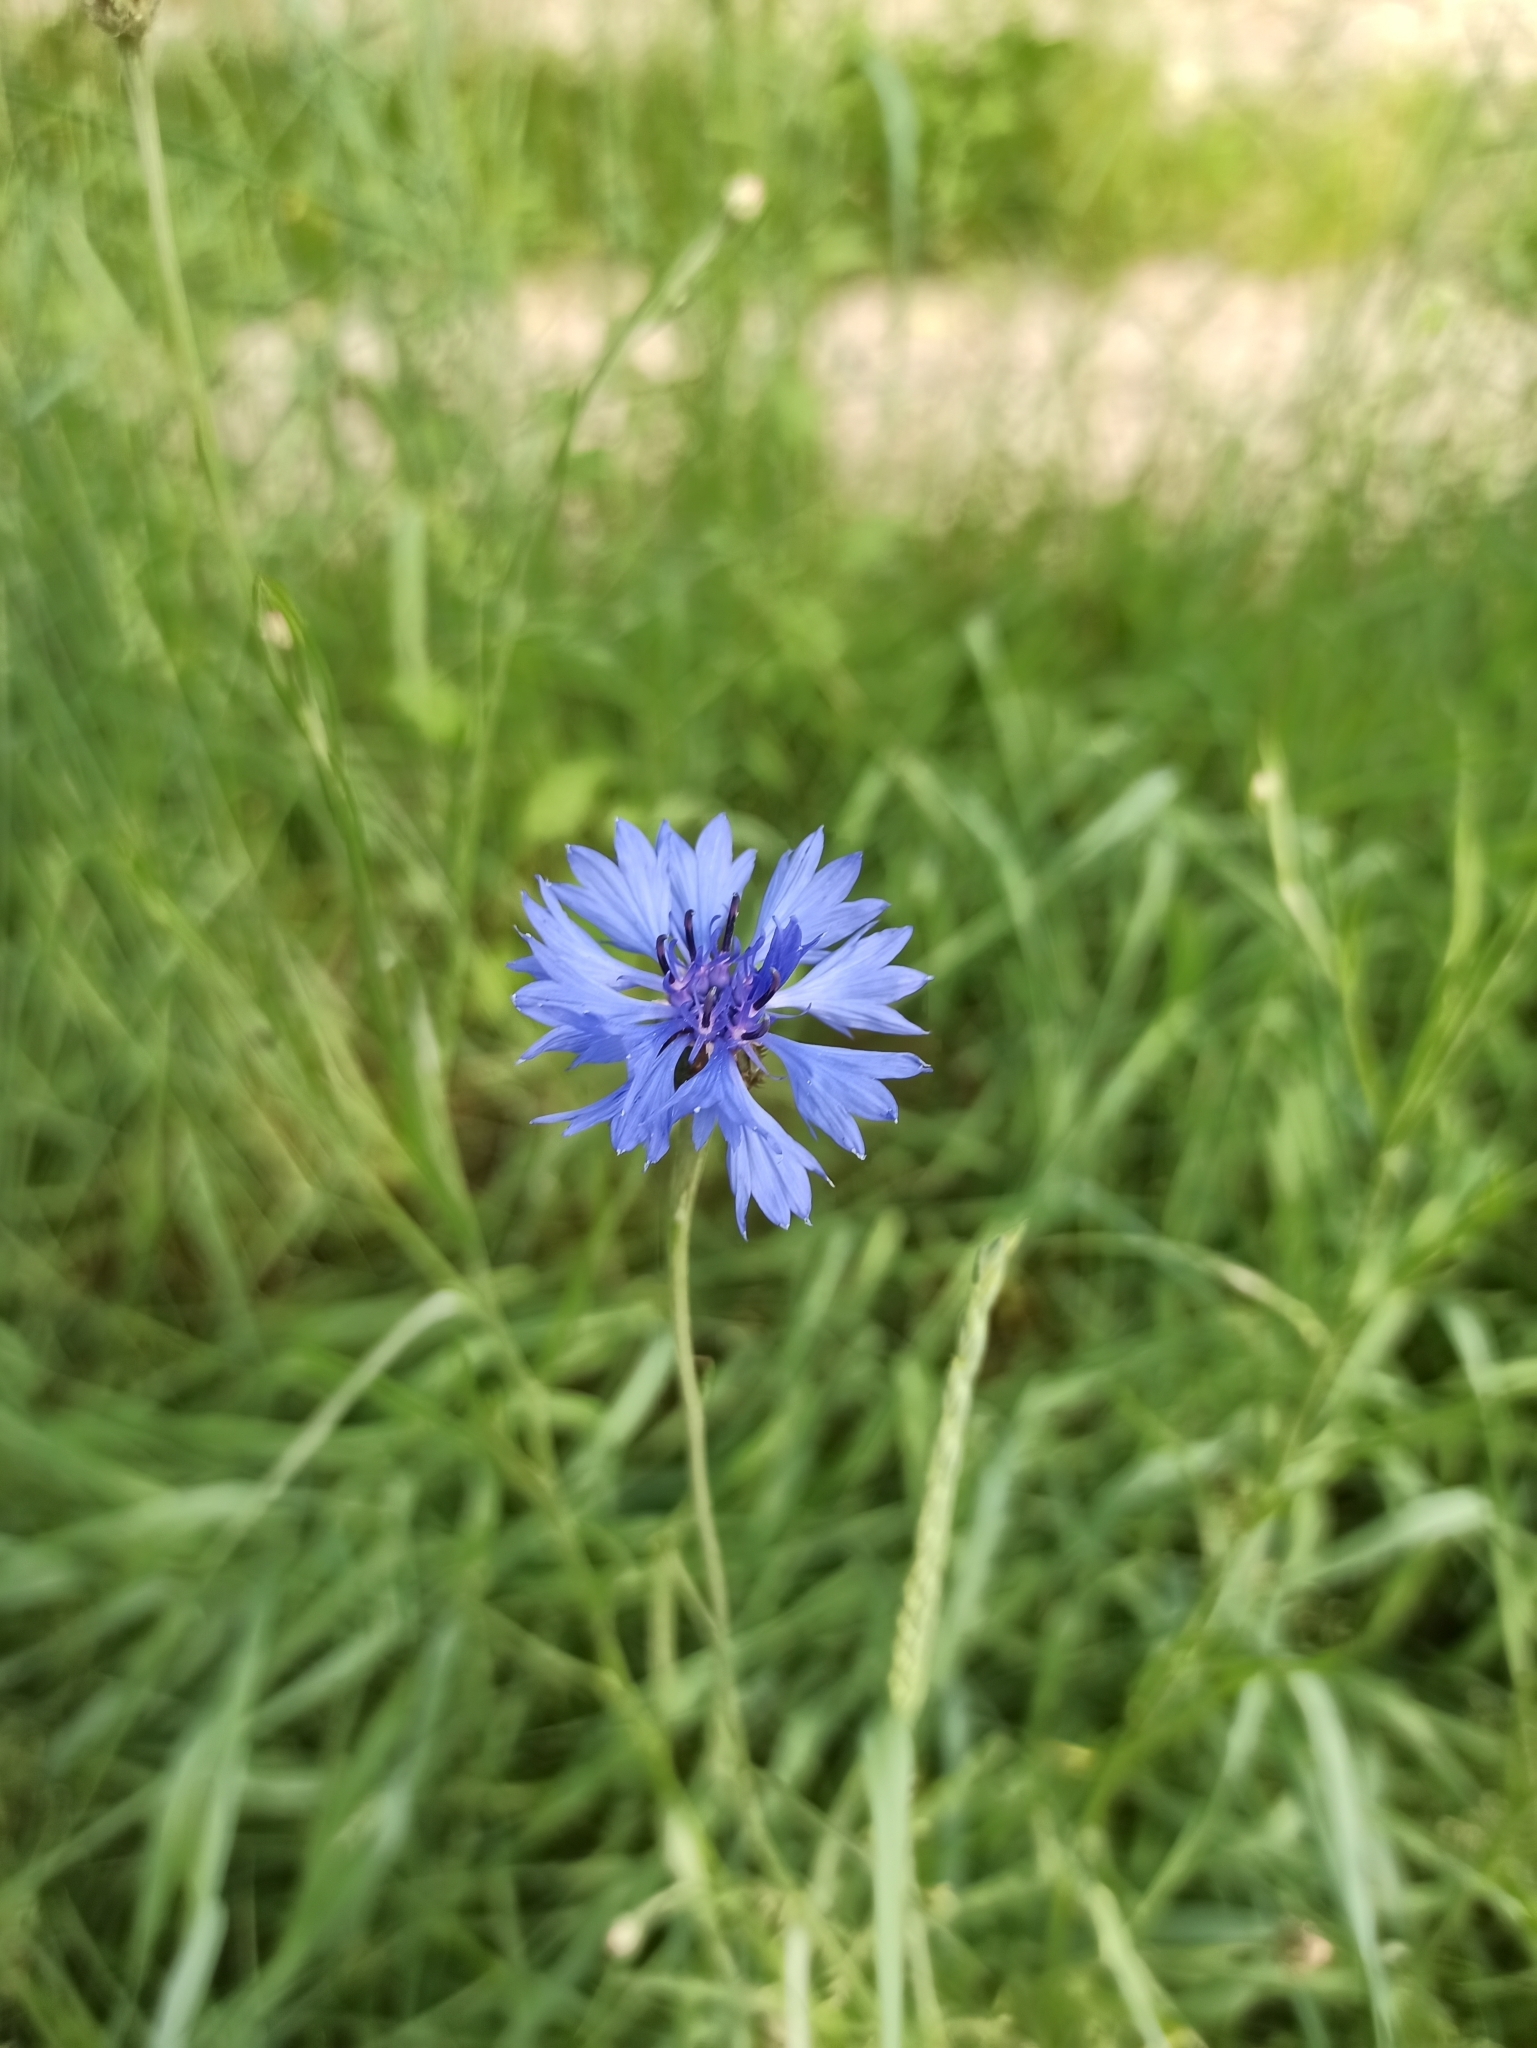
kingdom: Plantae
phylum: Tracheophyta
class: Magnoliopsida
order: Asterales
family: Asteraceae
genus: Centaurea
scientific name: Centaurea cyanus
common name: Cornflower
